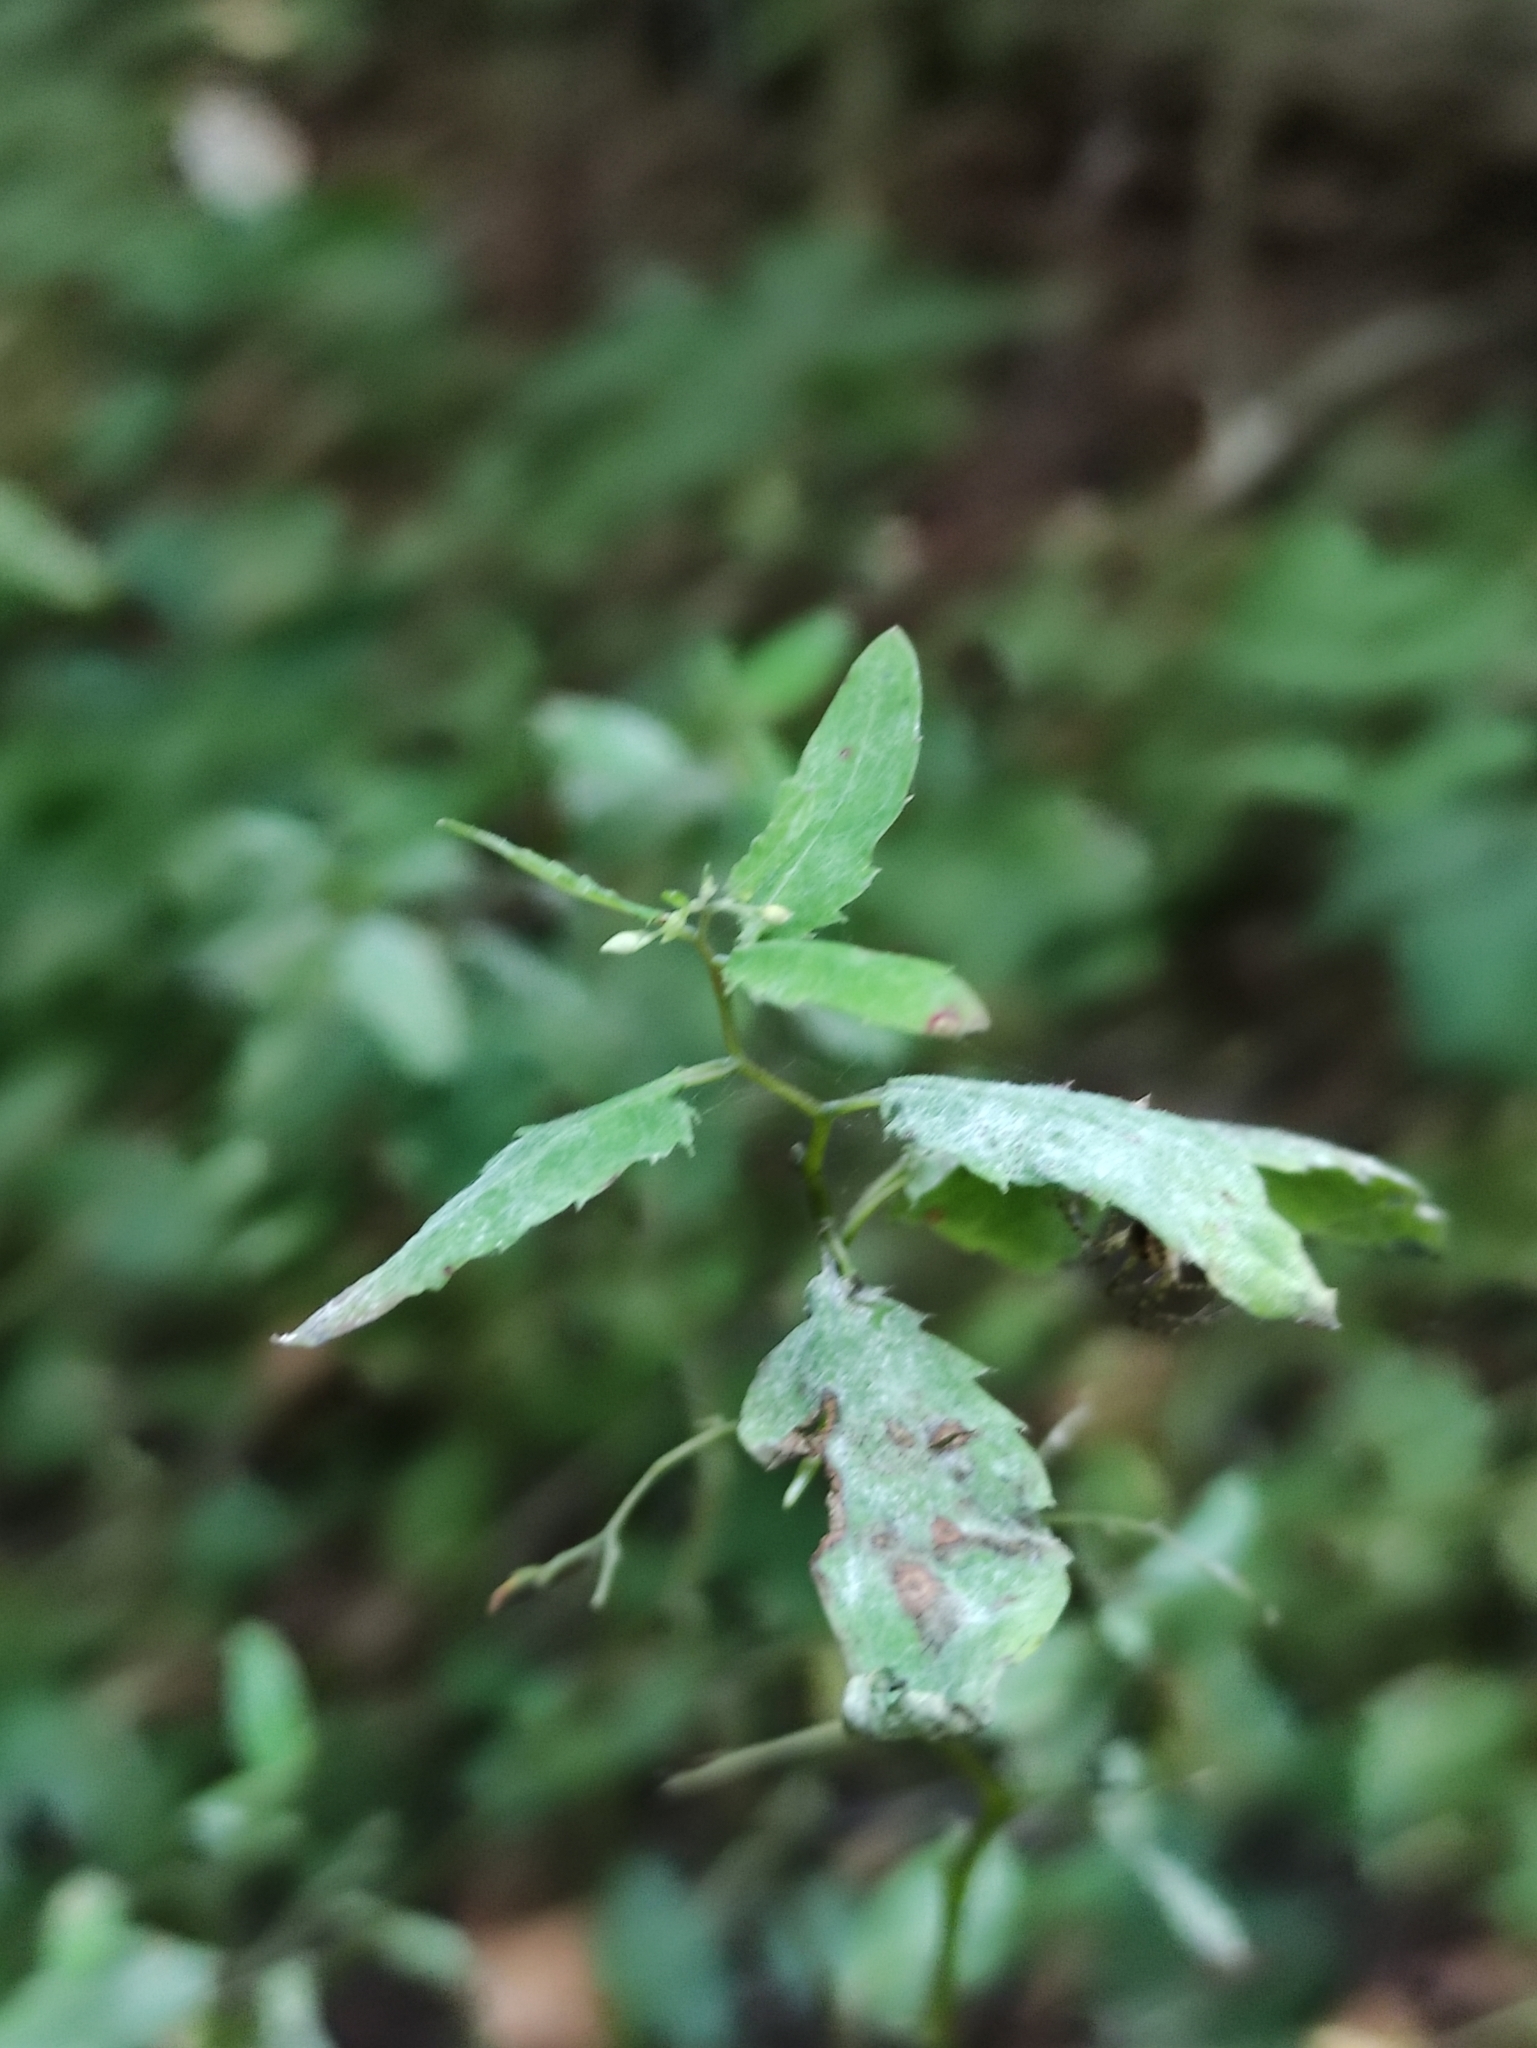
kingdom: Plantae
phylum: Tracheophyta
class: Magnoliopsida
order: Ericales
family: Balsaminaceae
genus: Impatiens
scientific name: Impatiens noli-tangere
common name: Touch-me-not balsam
